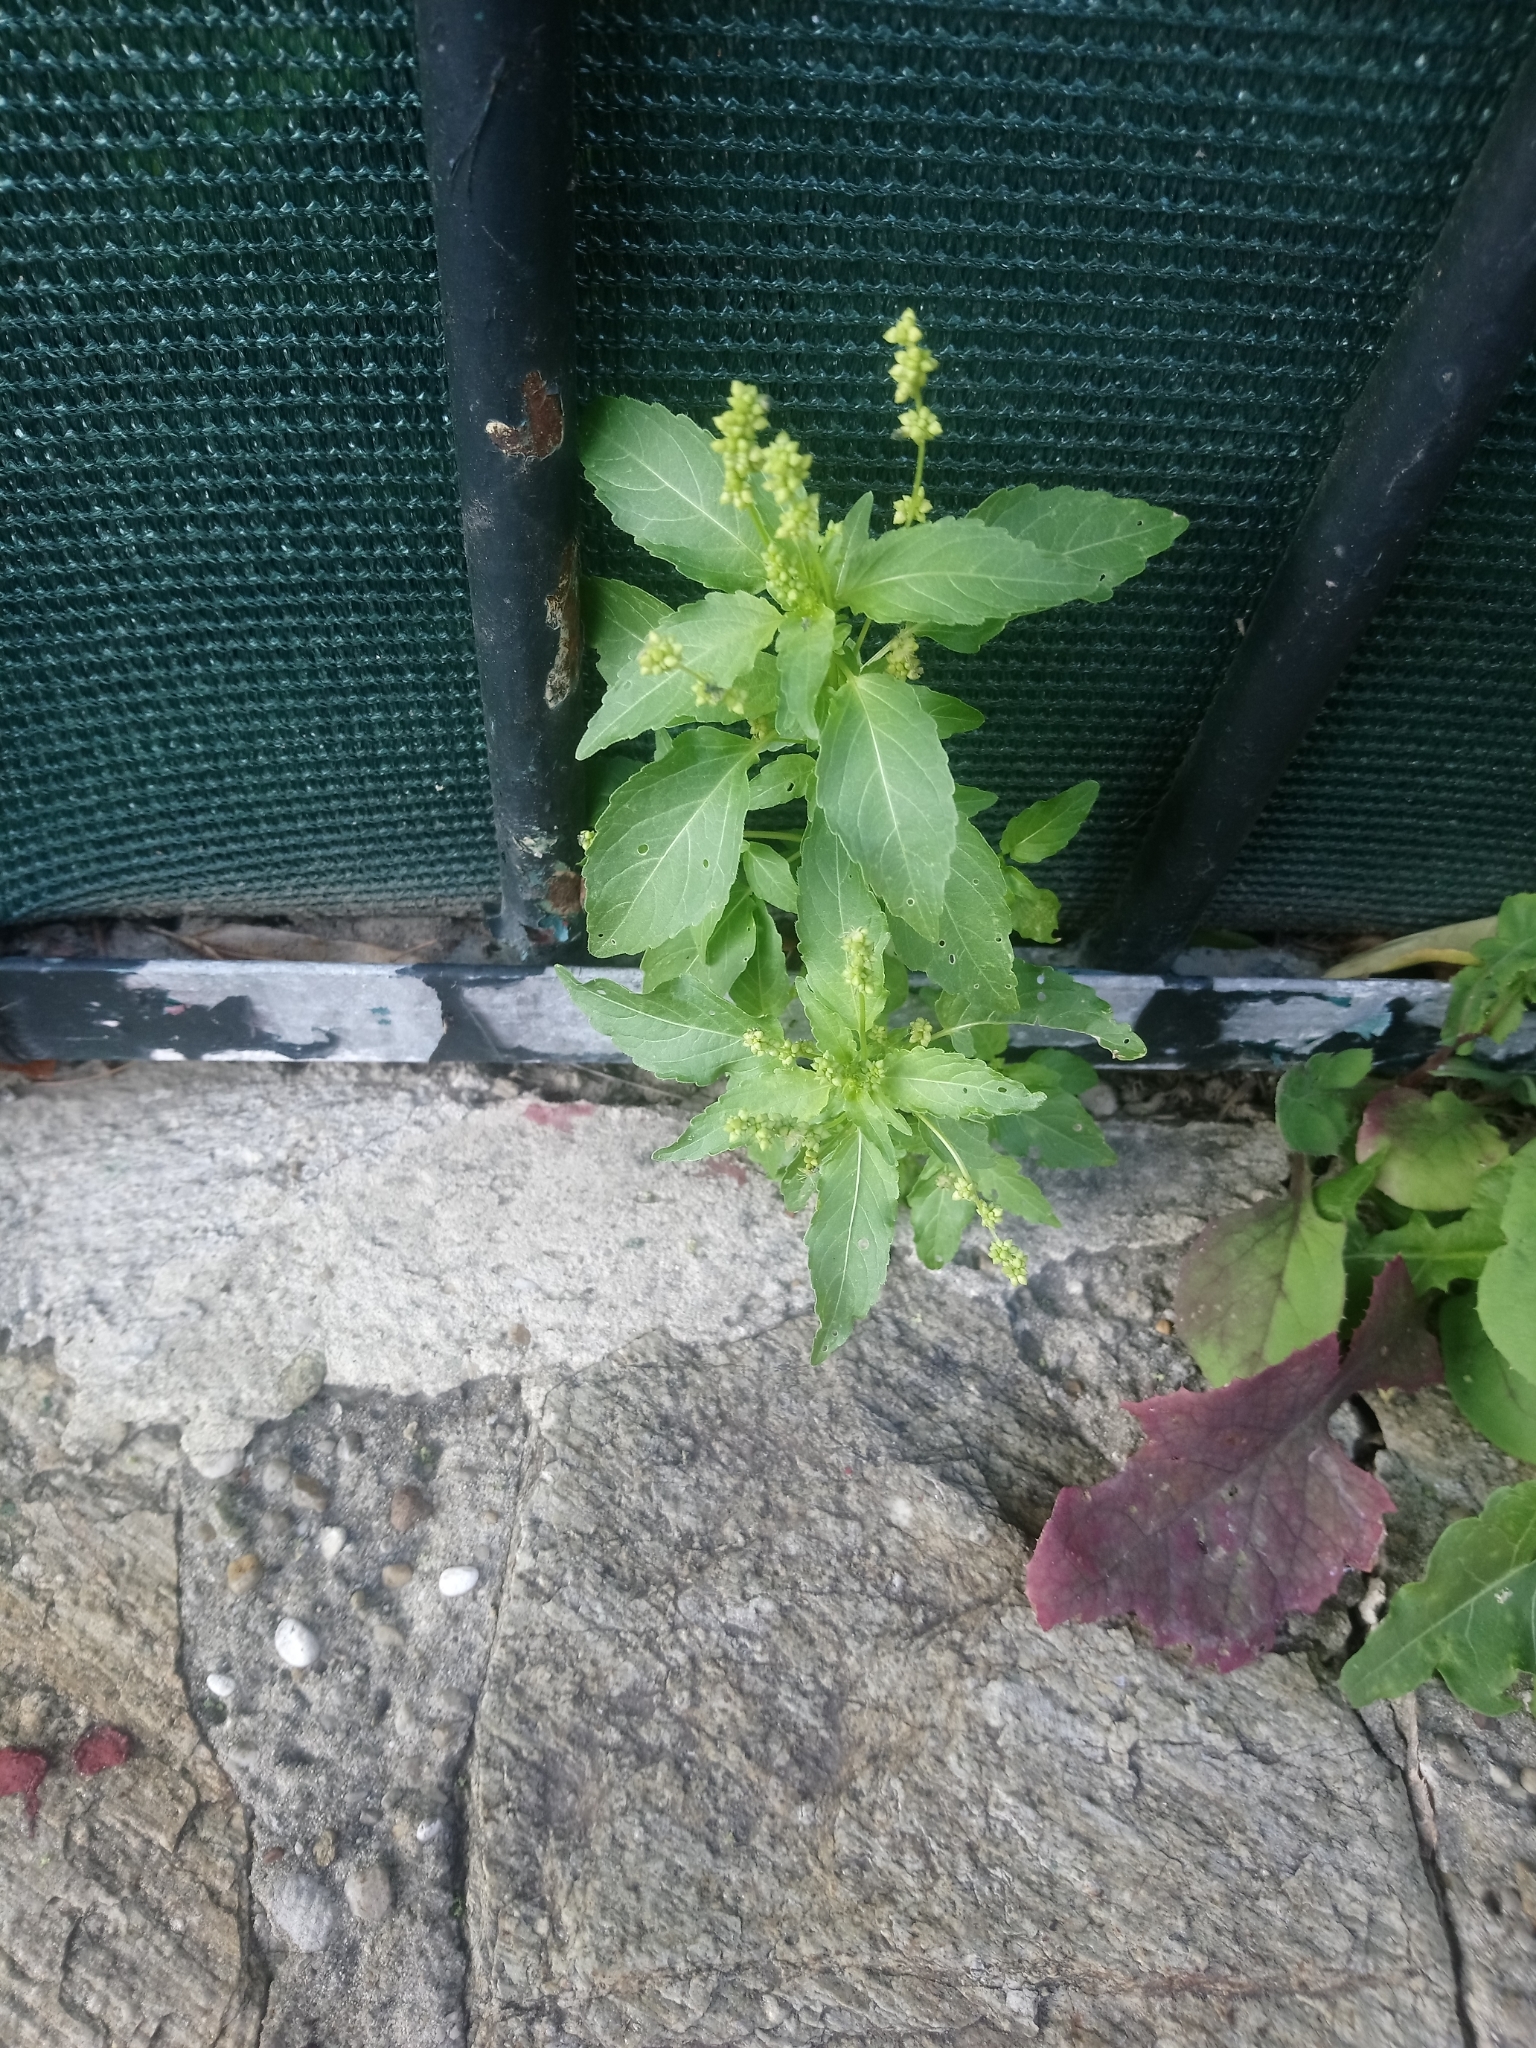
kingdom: Plantae
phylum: Tracheophyta
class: Magnoliopsida
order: Malpighiales
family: Euphorbiaceae
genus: Mercurialis
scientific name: Mercurialis annua
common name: Annual mercury
